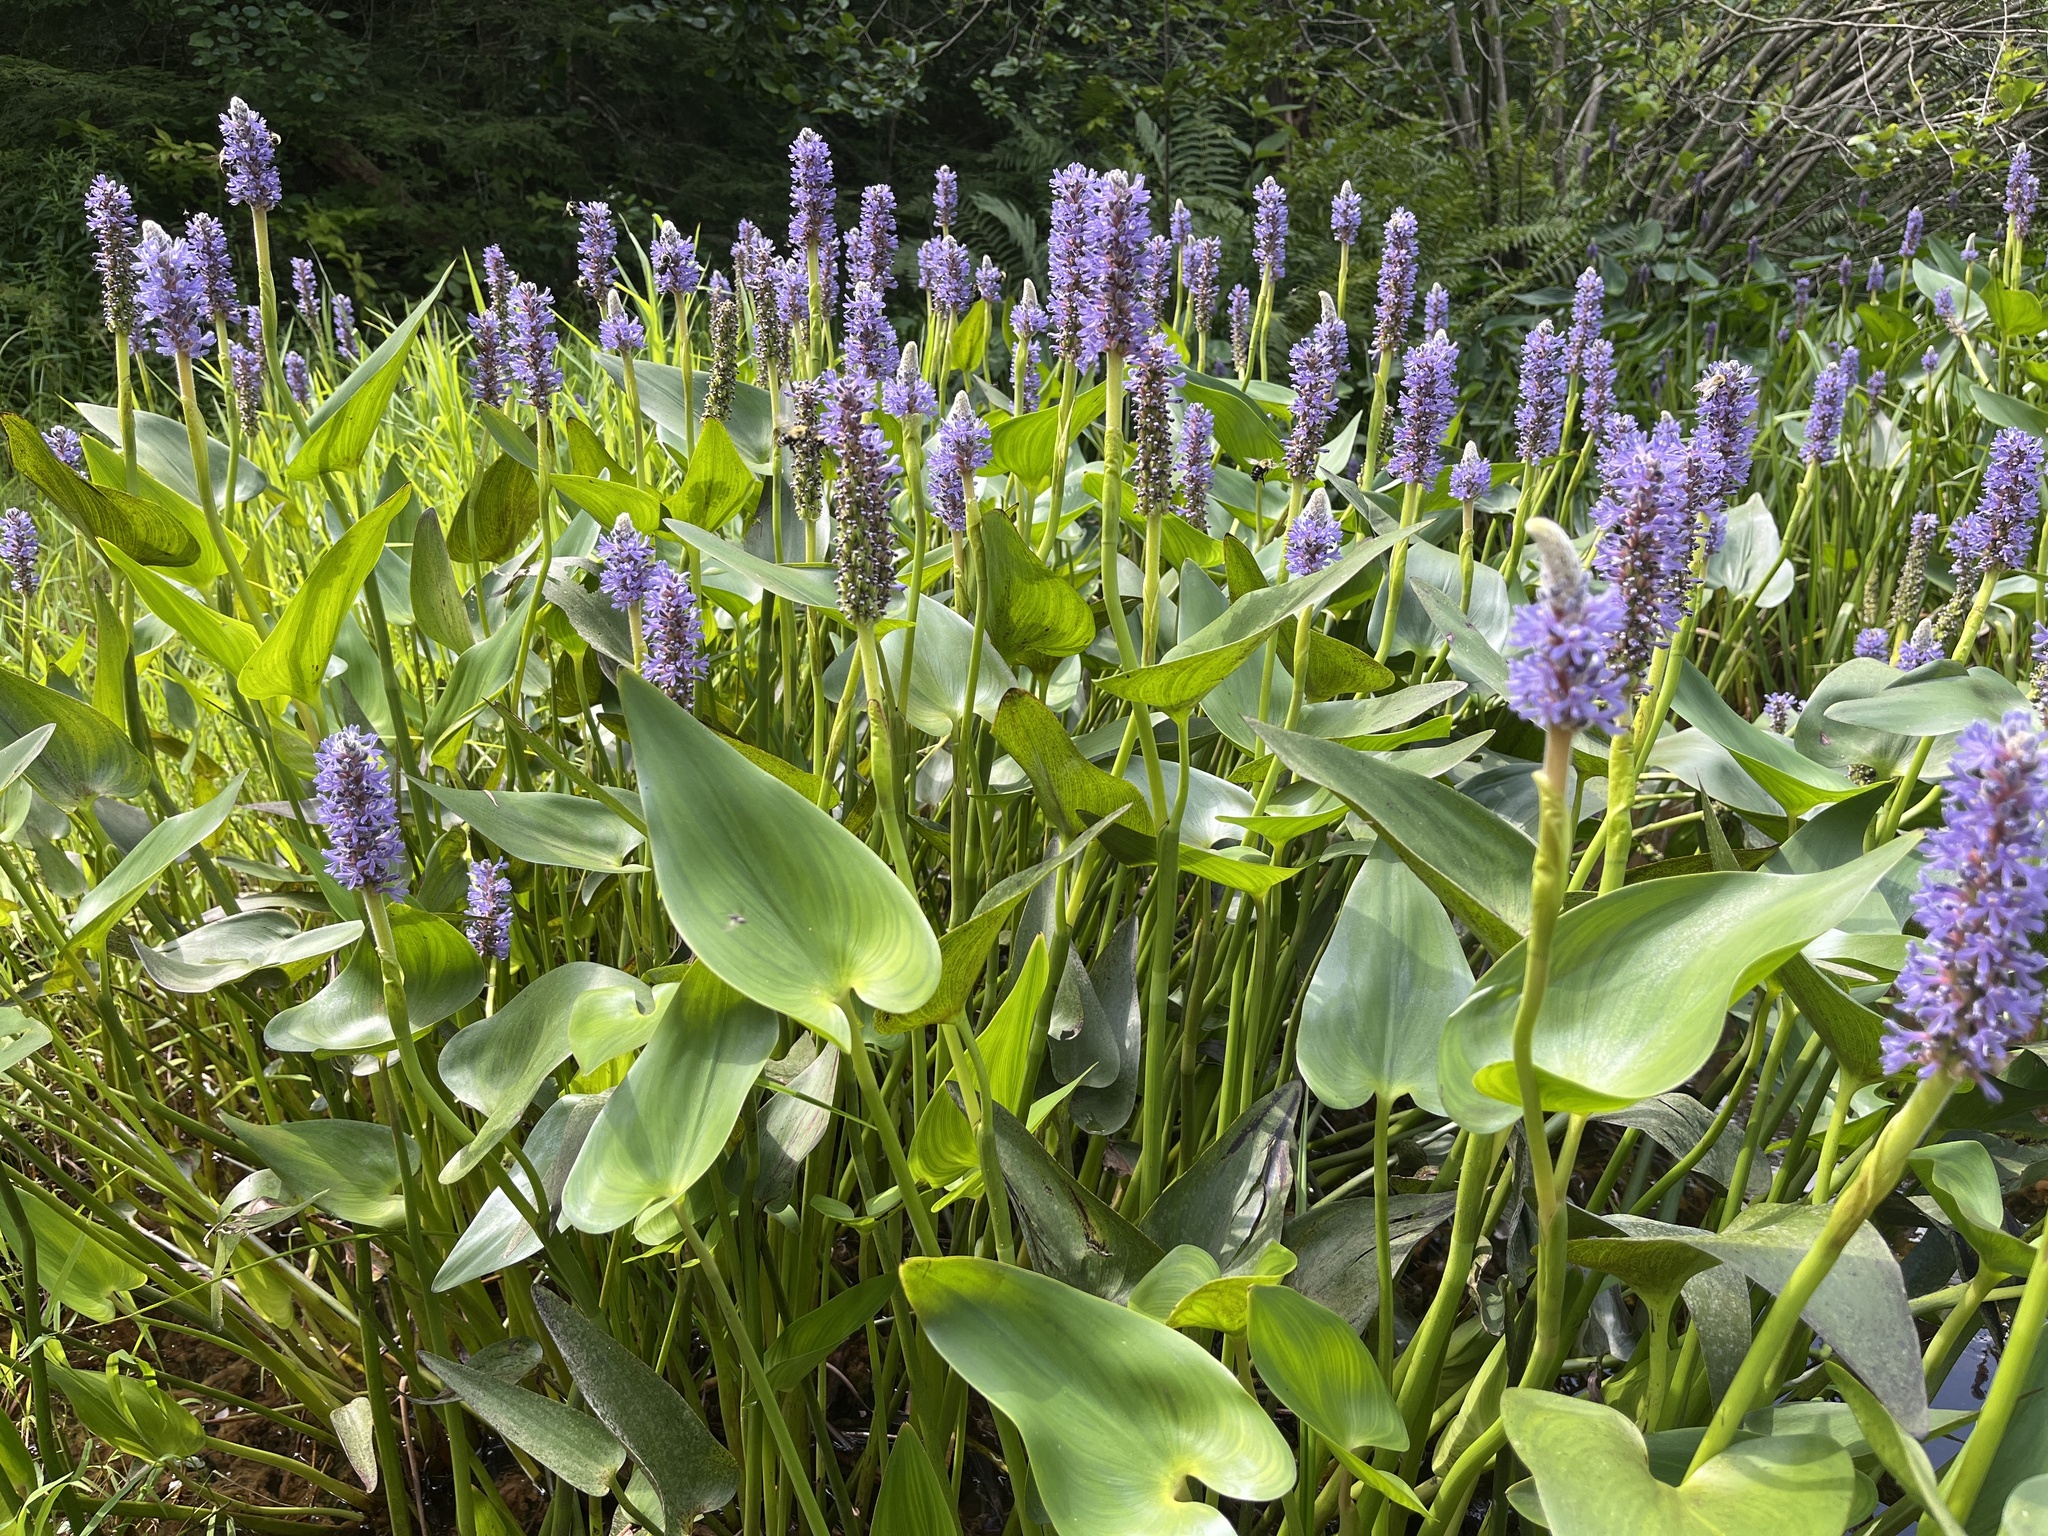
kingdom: Plantae
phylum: Tracheophyta
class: Liliopsida
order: Commelinales
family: Pontederiaceae
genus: Pontederia
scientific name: Pontederia cordata
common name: Pickerelweed
